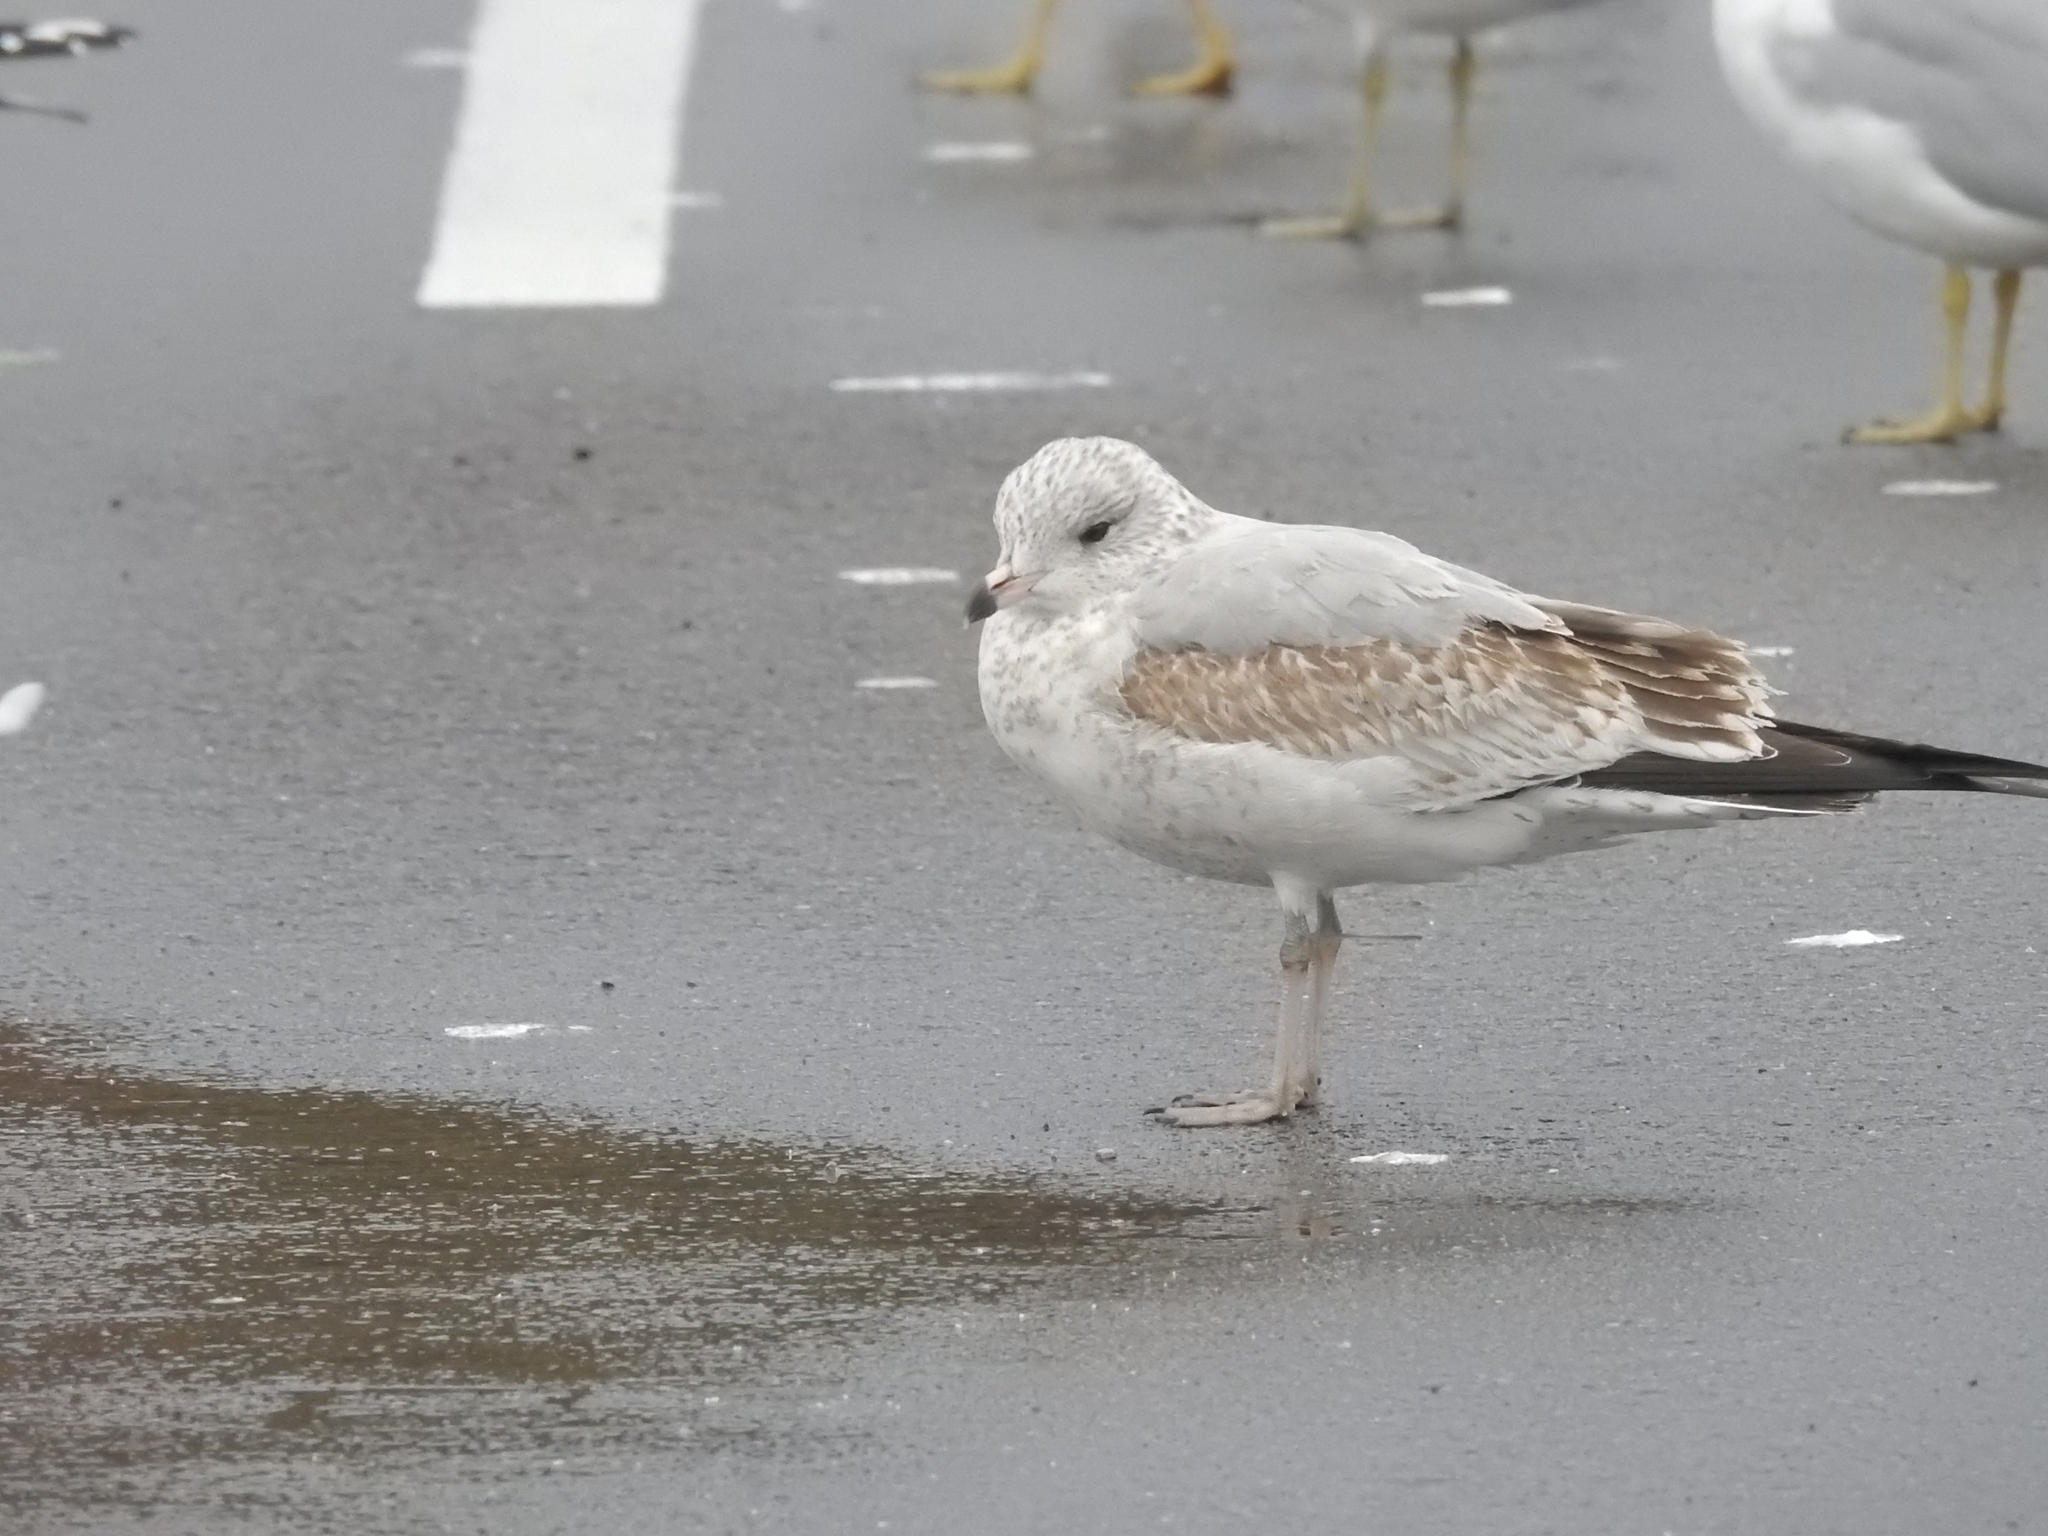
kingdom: Animalia
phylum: Chordata
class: Aves
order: Charadriiformes
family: Laridae
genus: Larus
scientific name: Larus delawarensis
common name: Ring-billed gull
